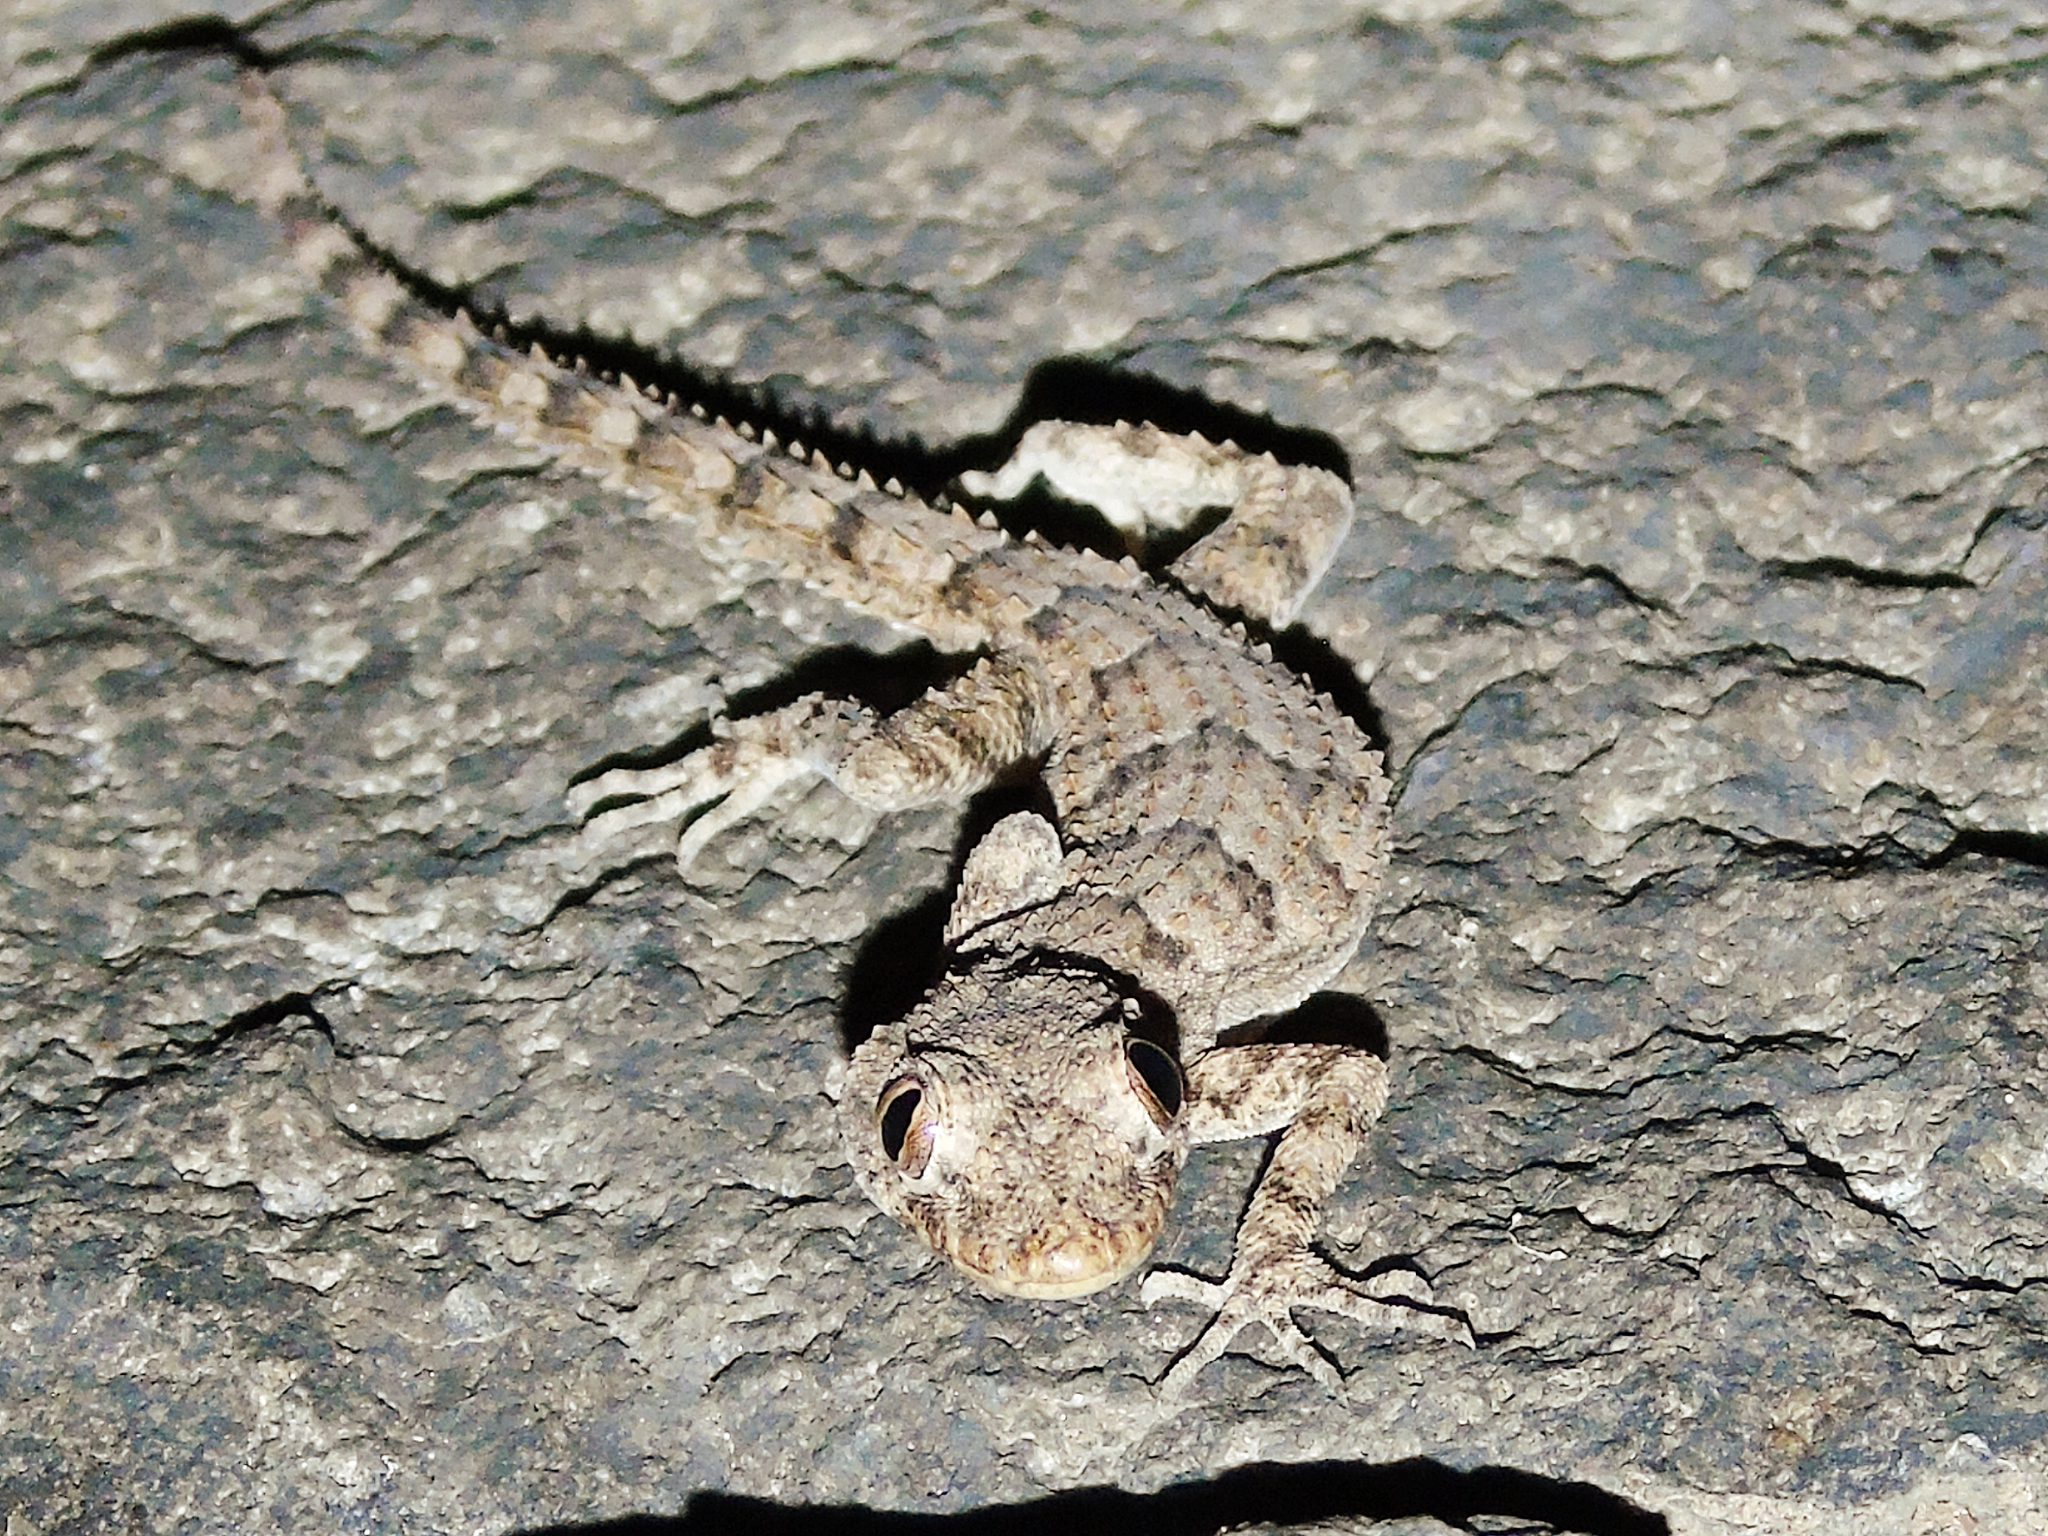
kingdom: Animalia
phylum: Chordata
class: Squamata
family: Gekkonidae
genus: Mediodactylus
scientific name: Mediodactylus heterocercus
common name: Asia minor thin-toed gecko
